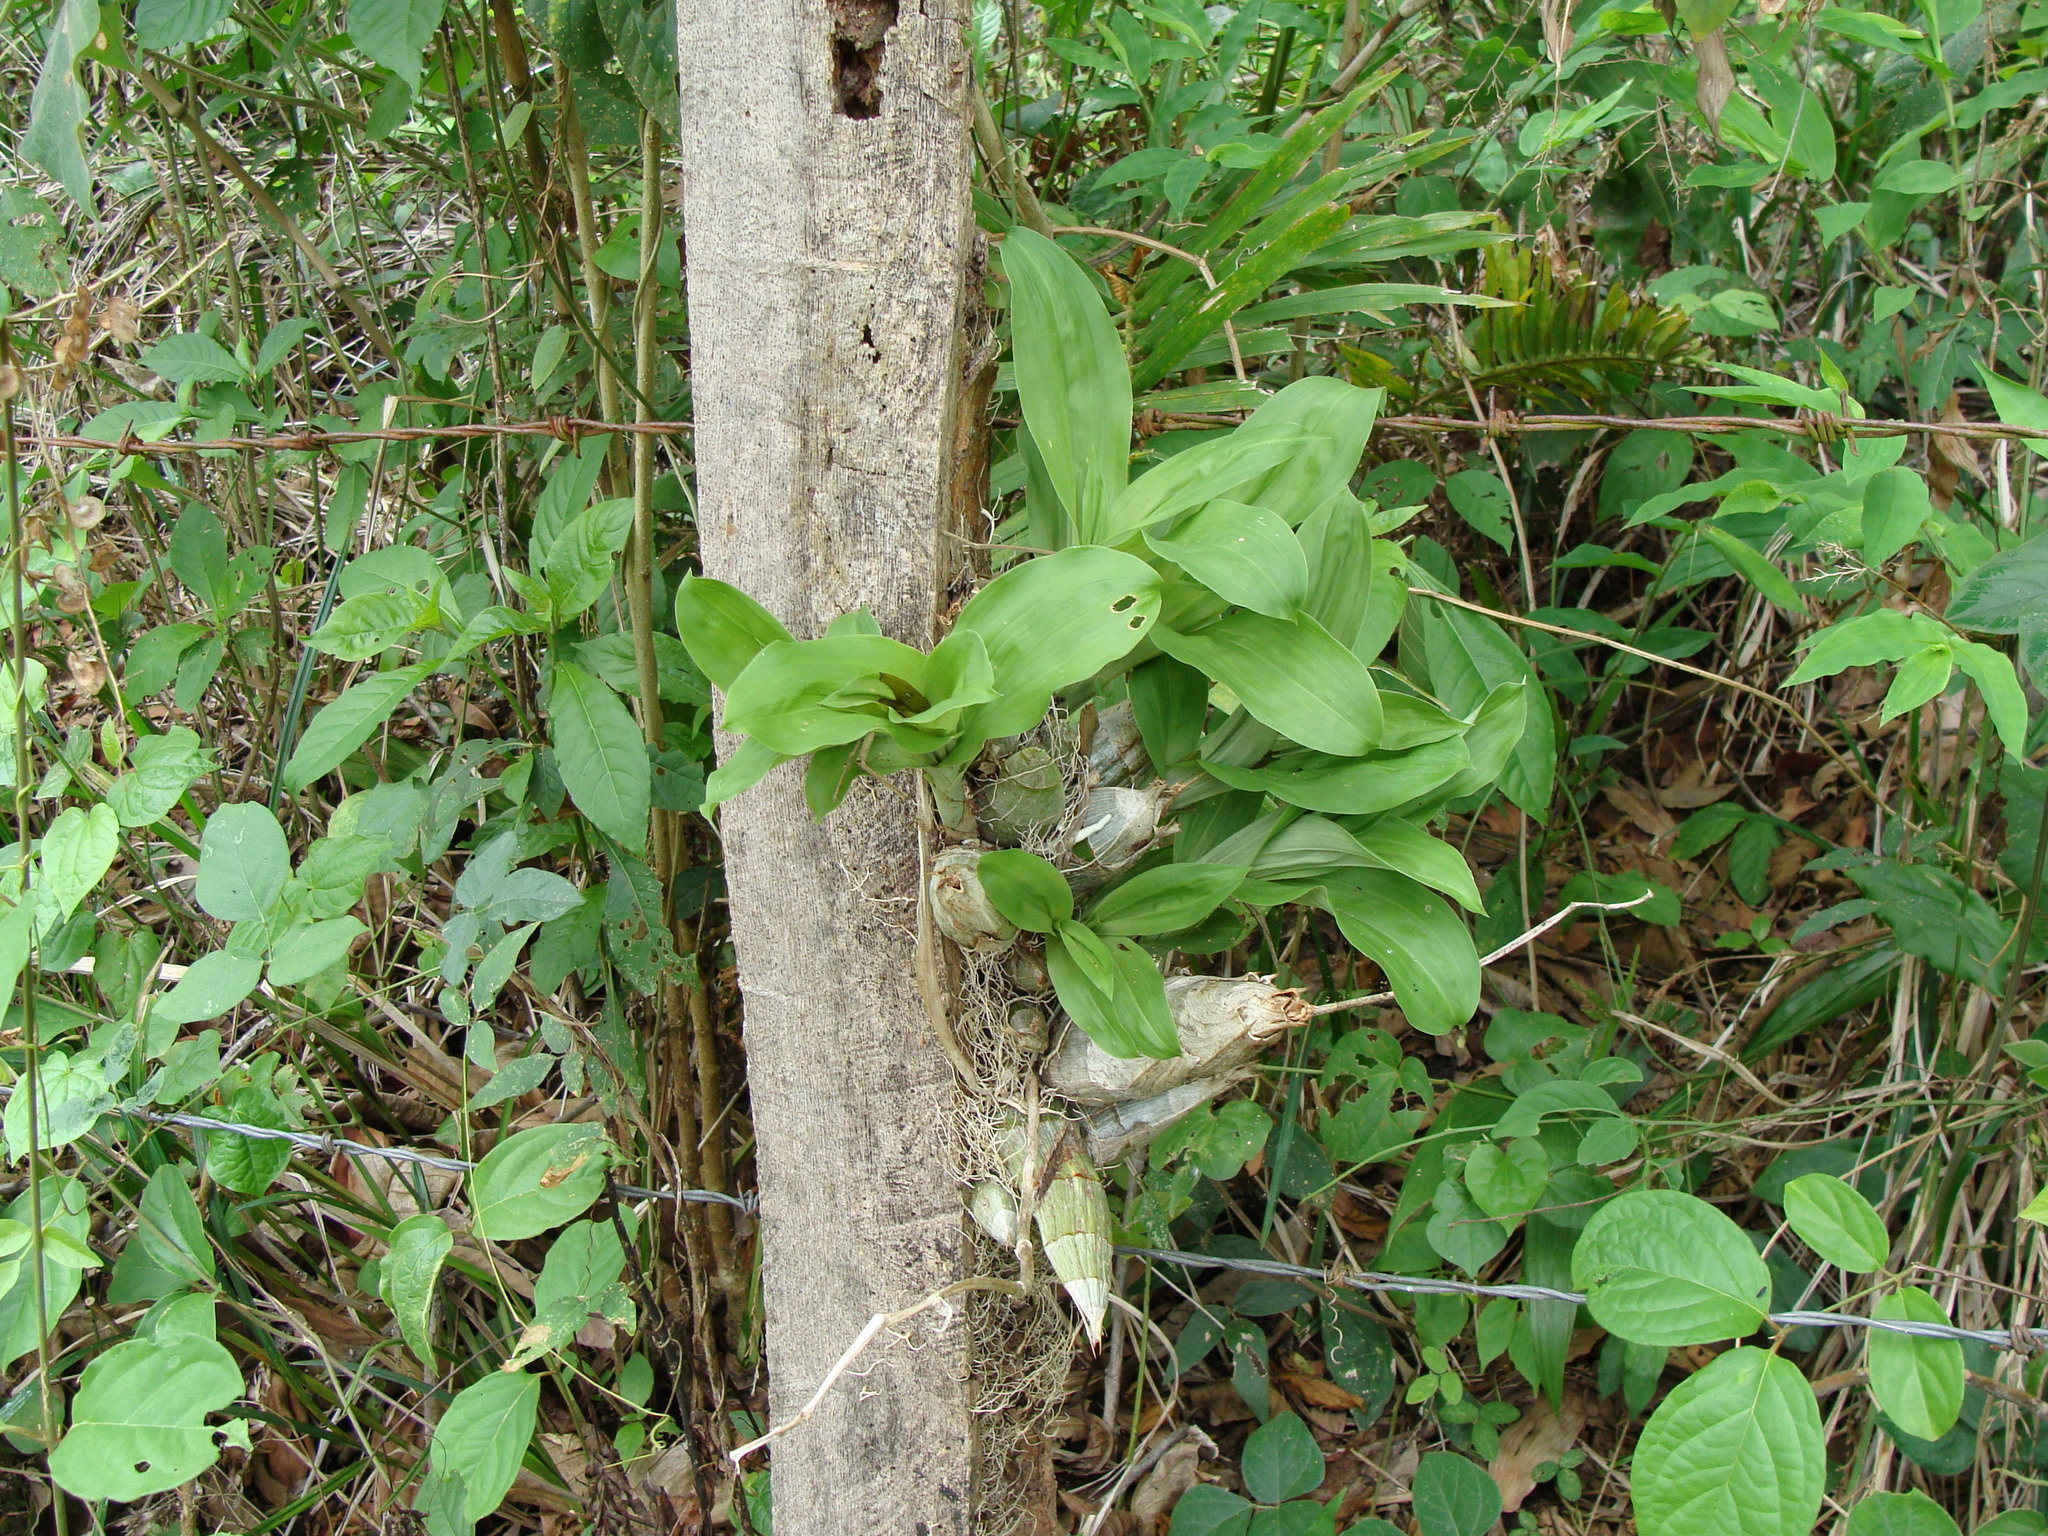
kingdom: Plantae
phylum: Tracheophyta
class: Liliopsida
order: Asparagales
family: Orchidaceae
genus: Catasetum
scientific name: Catasetum integerrimum
